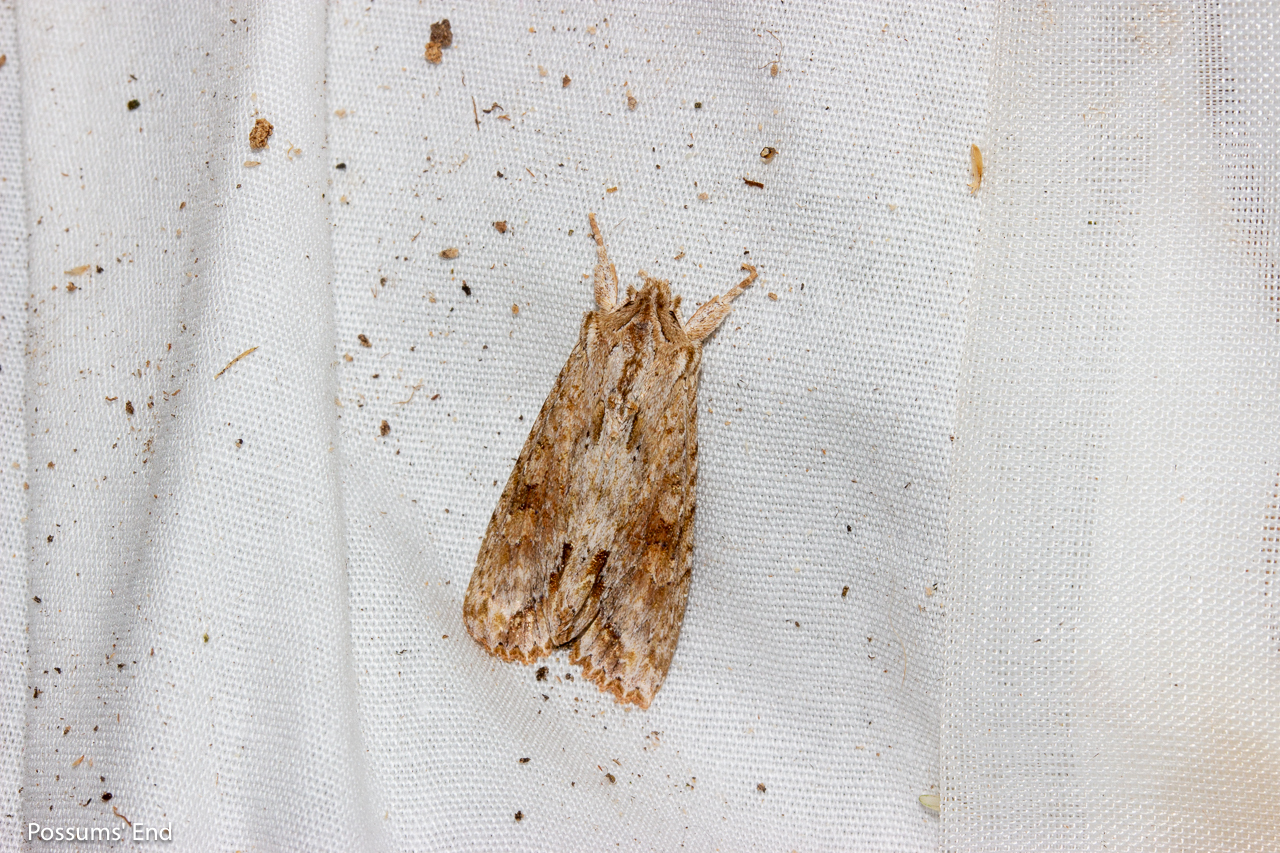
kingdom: Animalia
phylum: Arthropoda
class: Insecta
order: Lepidoptera
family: Noctuidae
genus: Ichneutica
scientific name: Ichneutica mollis
